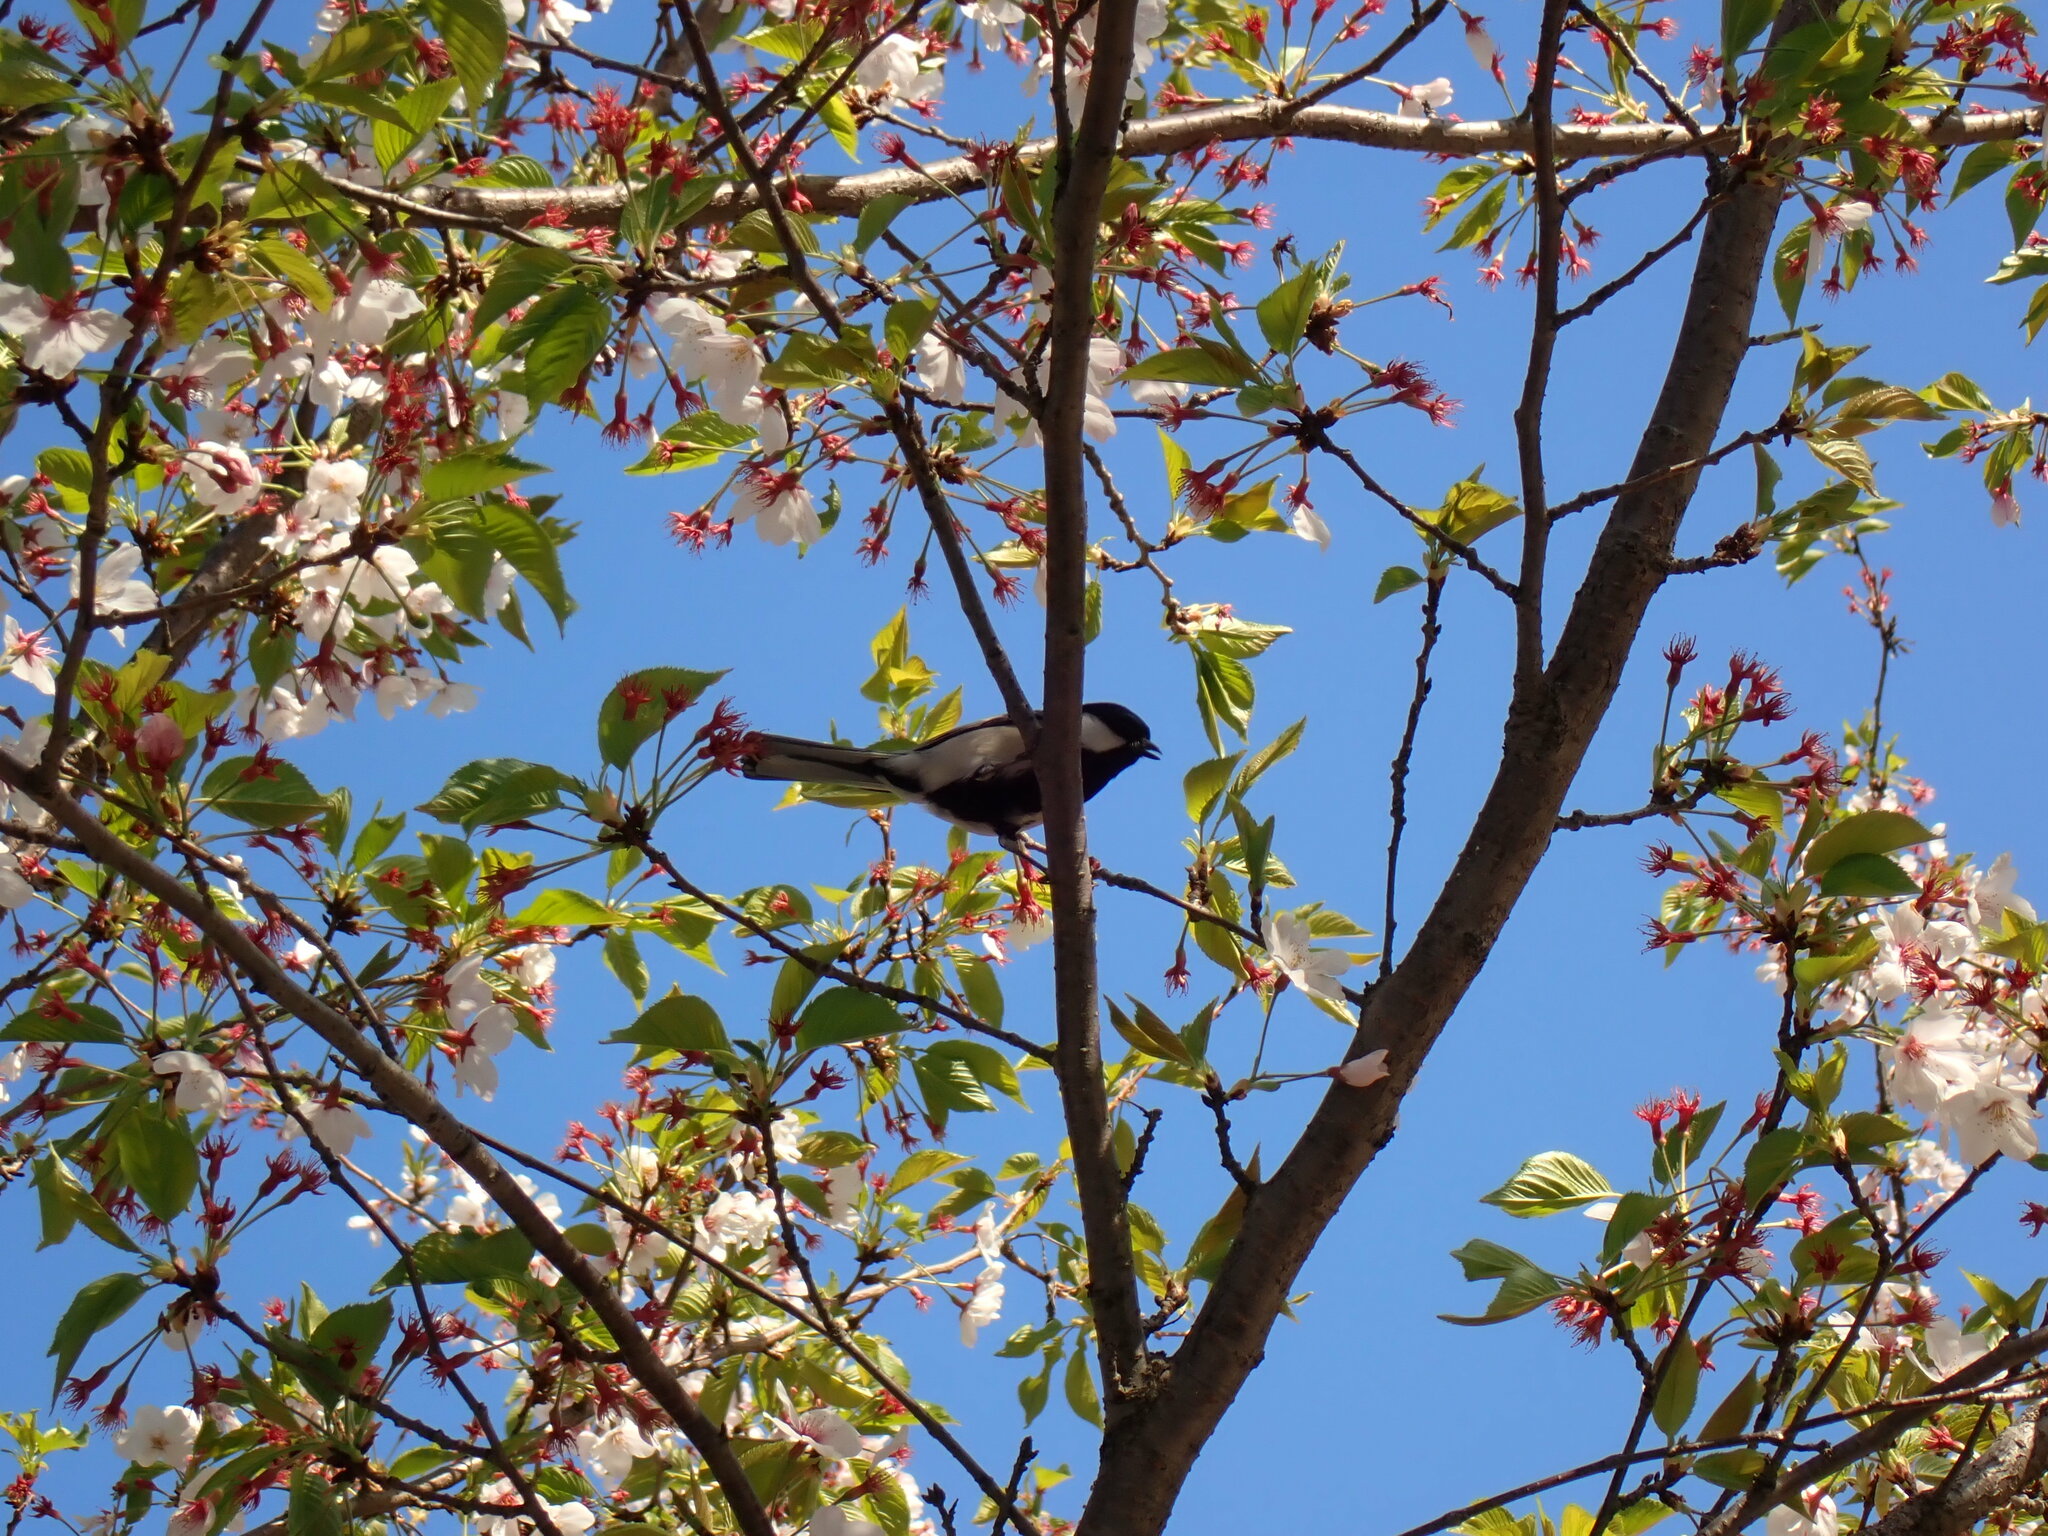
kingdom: Animalia
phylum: Chordata
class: Aves
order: Passeriformes
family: Paridae
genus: Parus
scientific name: Parus minor
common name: Japanese tit
